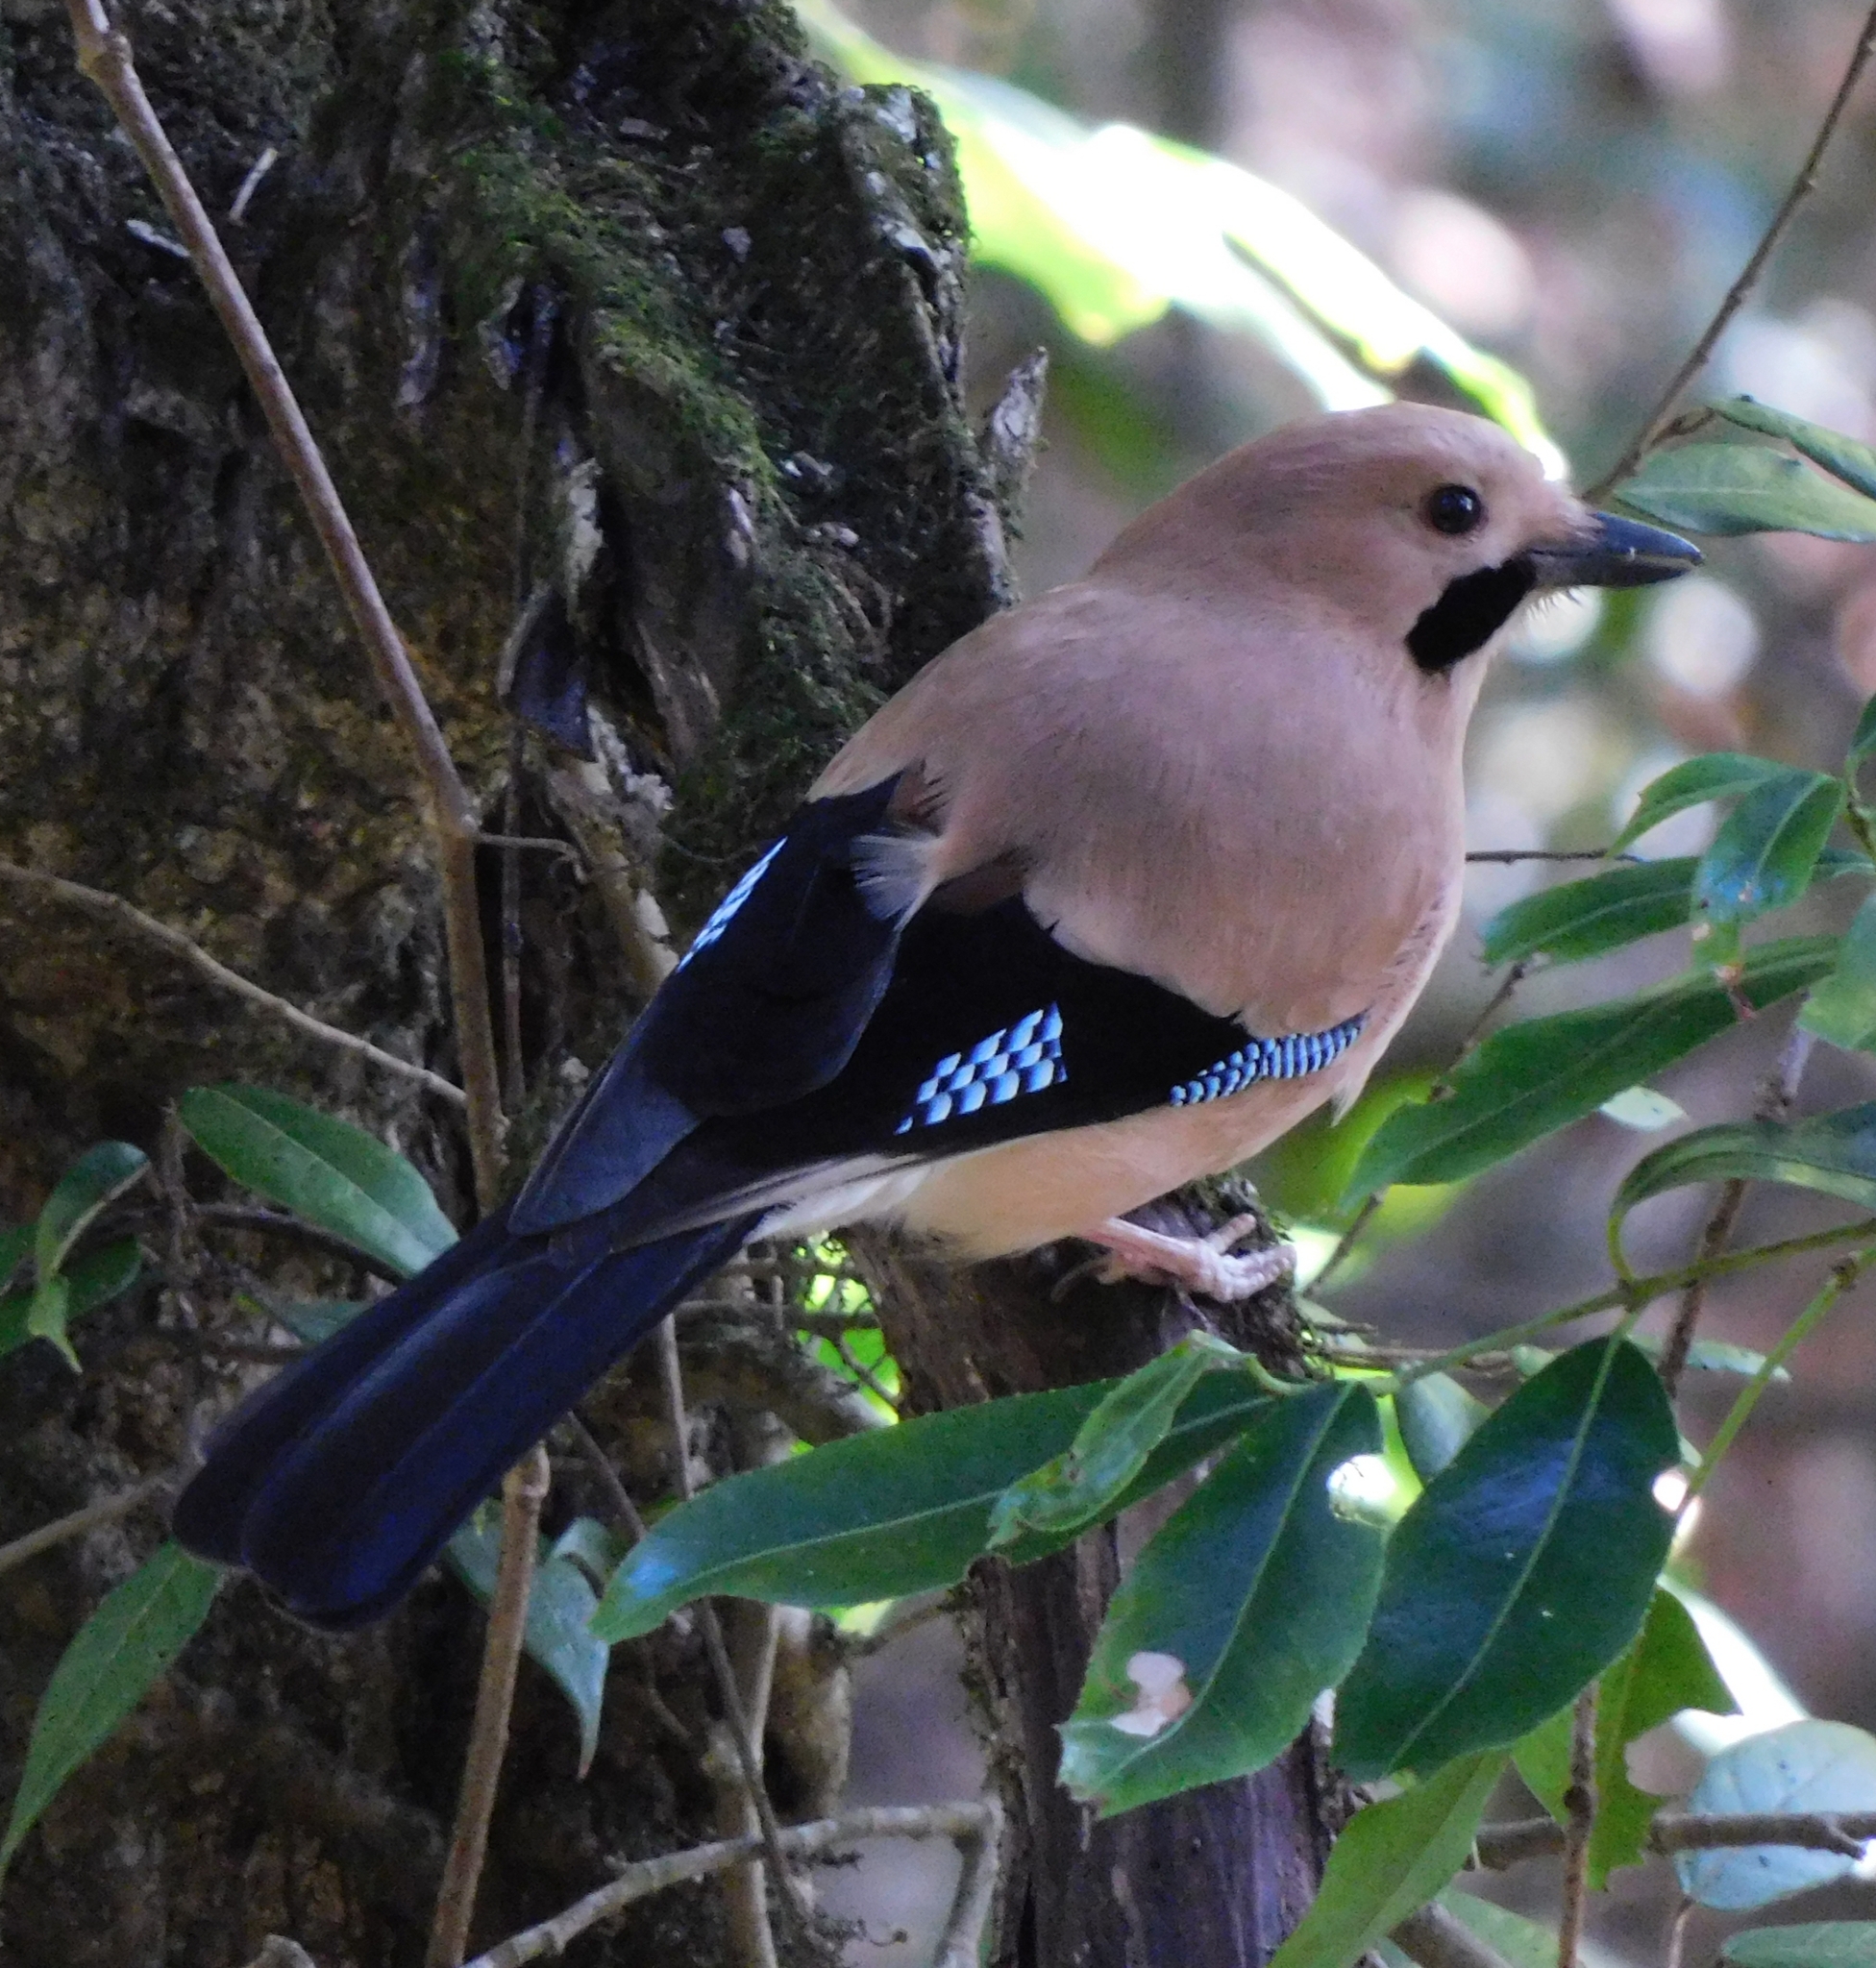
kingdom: Animalia
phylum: Chordata
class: Aves
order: Passeriformes
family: Corvidae
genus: Garrulus
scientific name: Garrulus glandarius
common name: Eurasian jay
